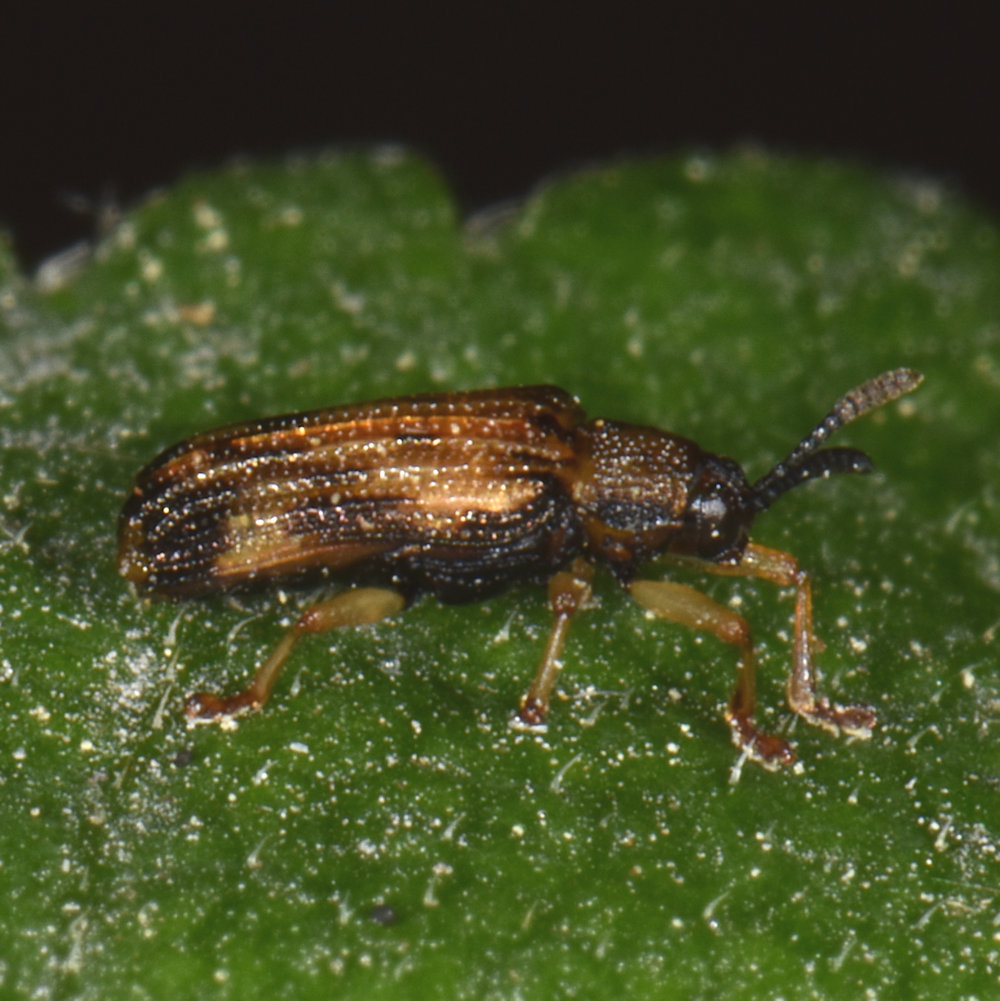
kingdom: Animalia
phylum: Arthropoda
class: Insecta
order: Coleoptera
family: Chrysomelidae
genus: Sumitrosis
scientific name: Sumitrosis inaequalis
